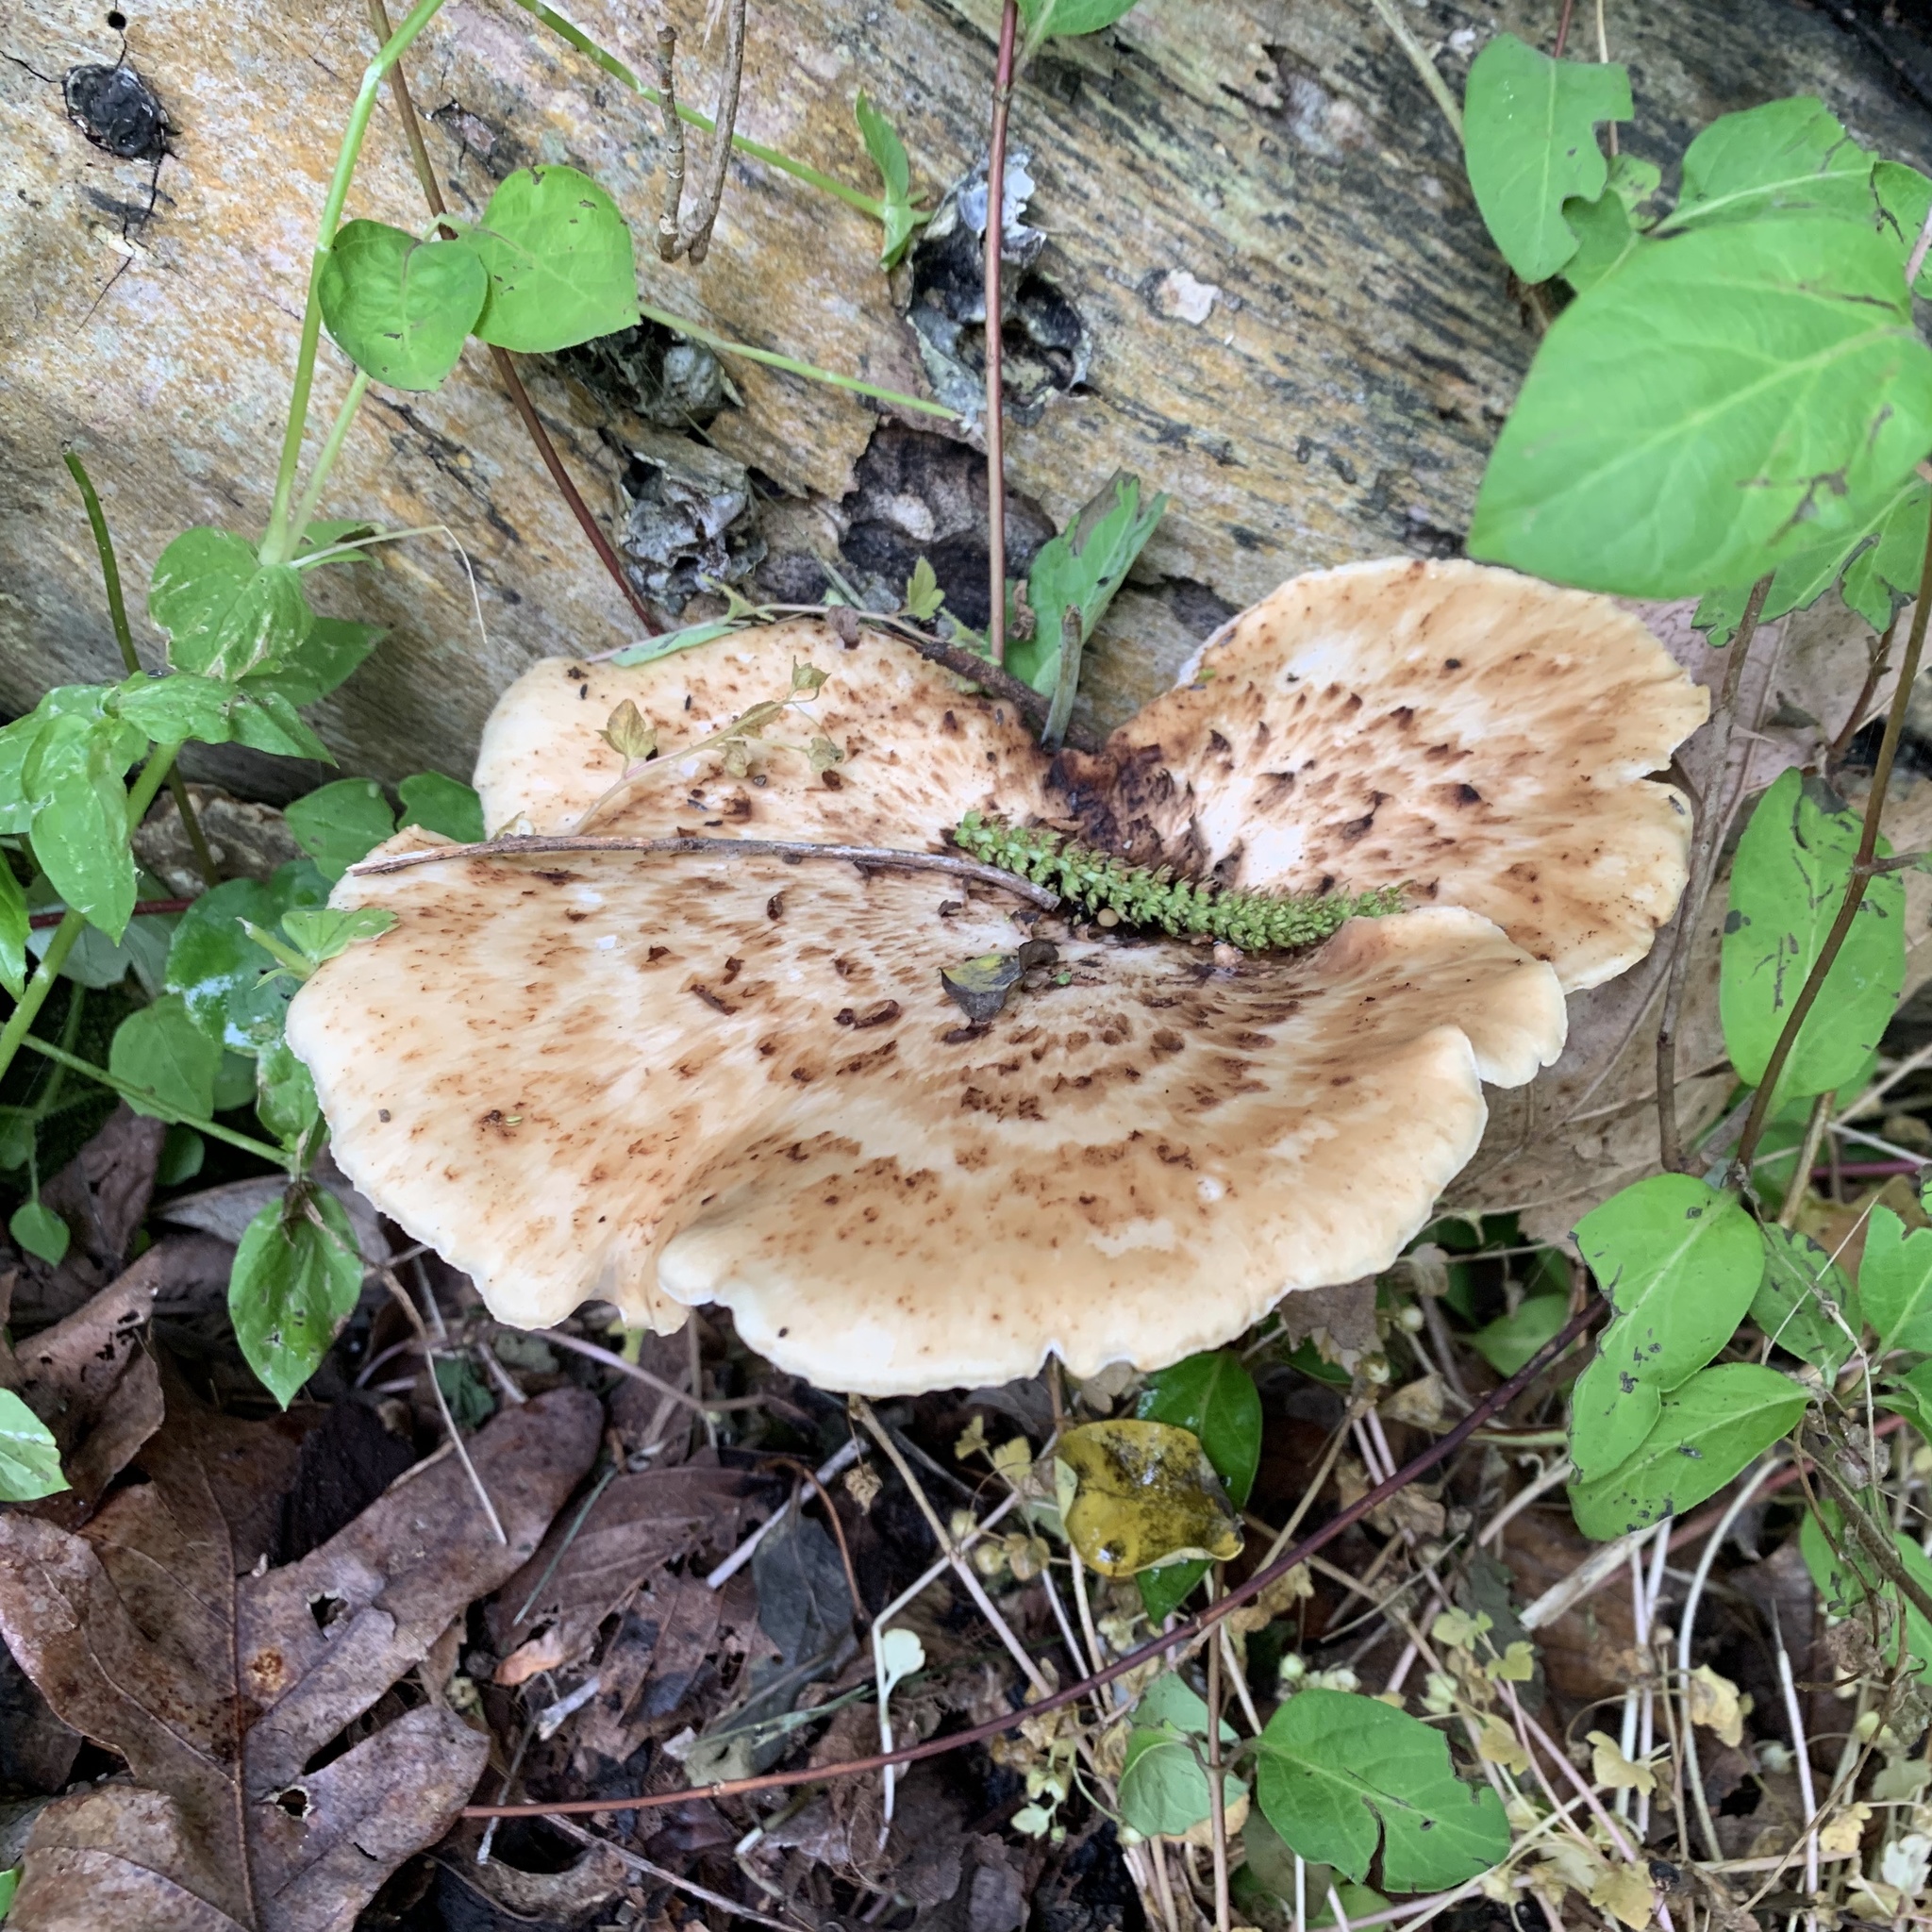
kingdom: Fungi
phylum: Basidiomycota
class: Agaricomycetes
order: Polyporales
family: Polyporaceae
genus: Cerioporus
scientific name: Cerioporus squamosus
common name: Dryad's saddle
